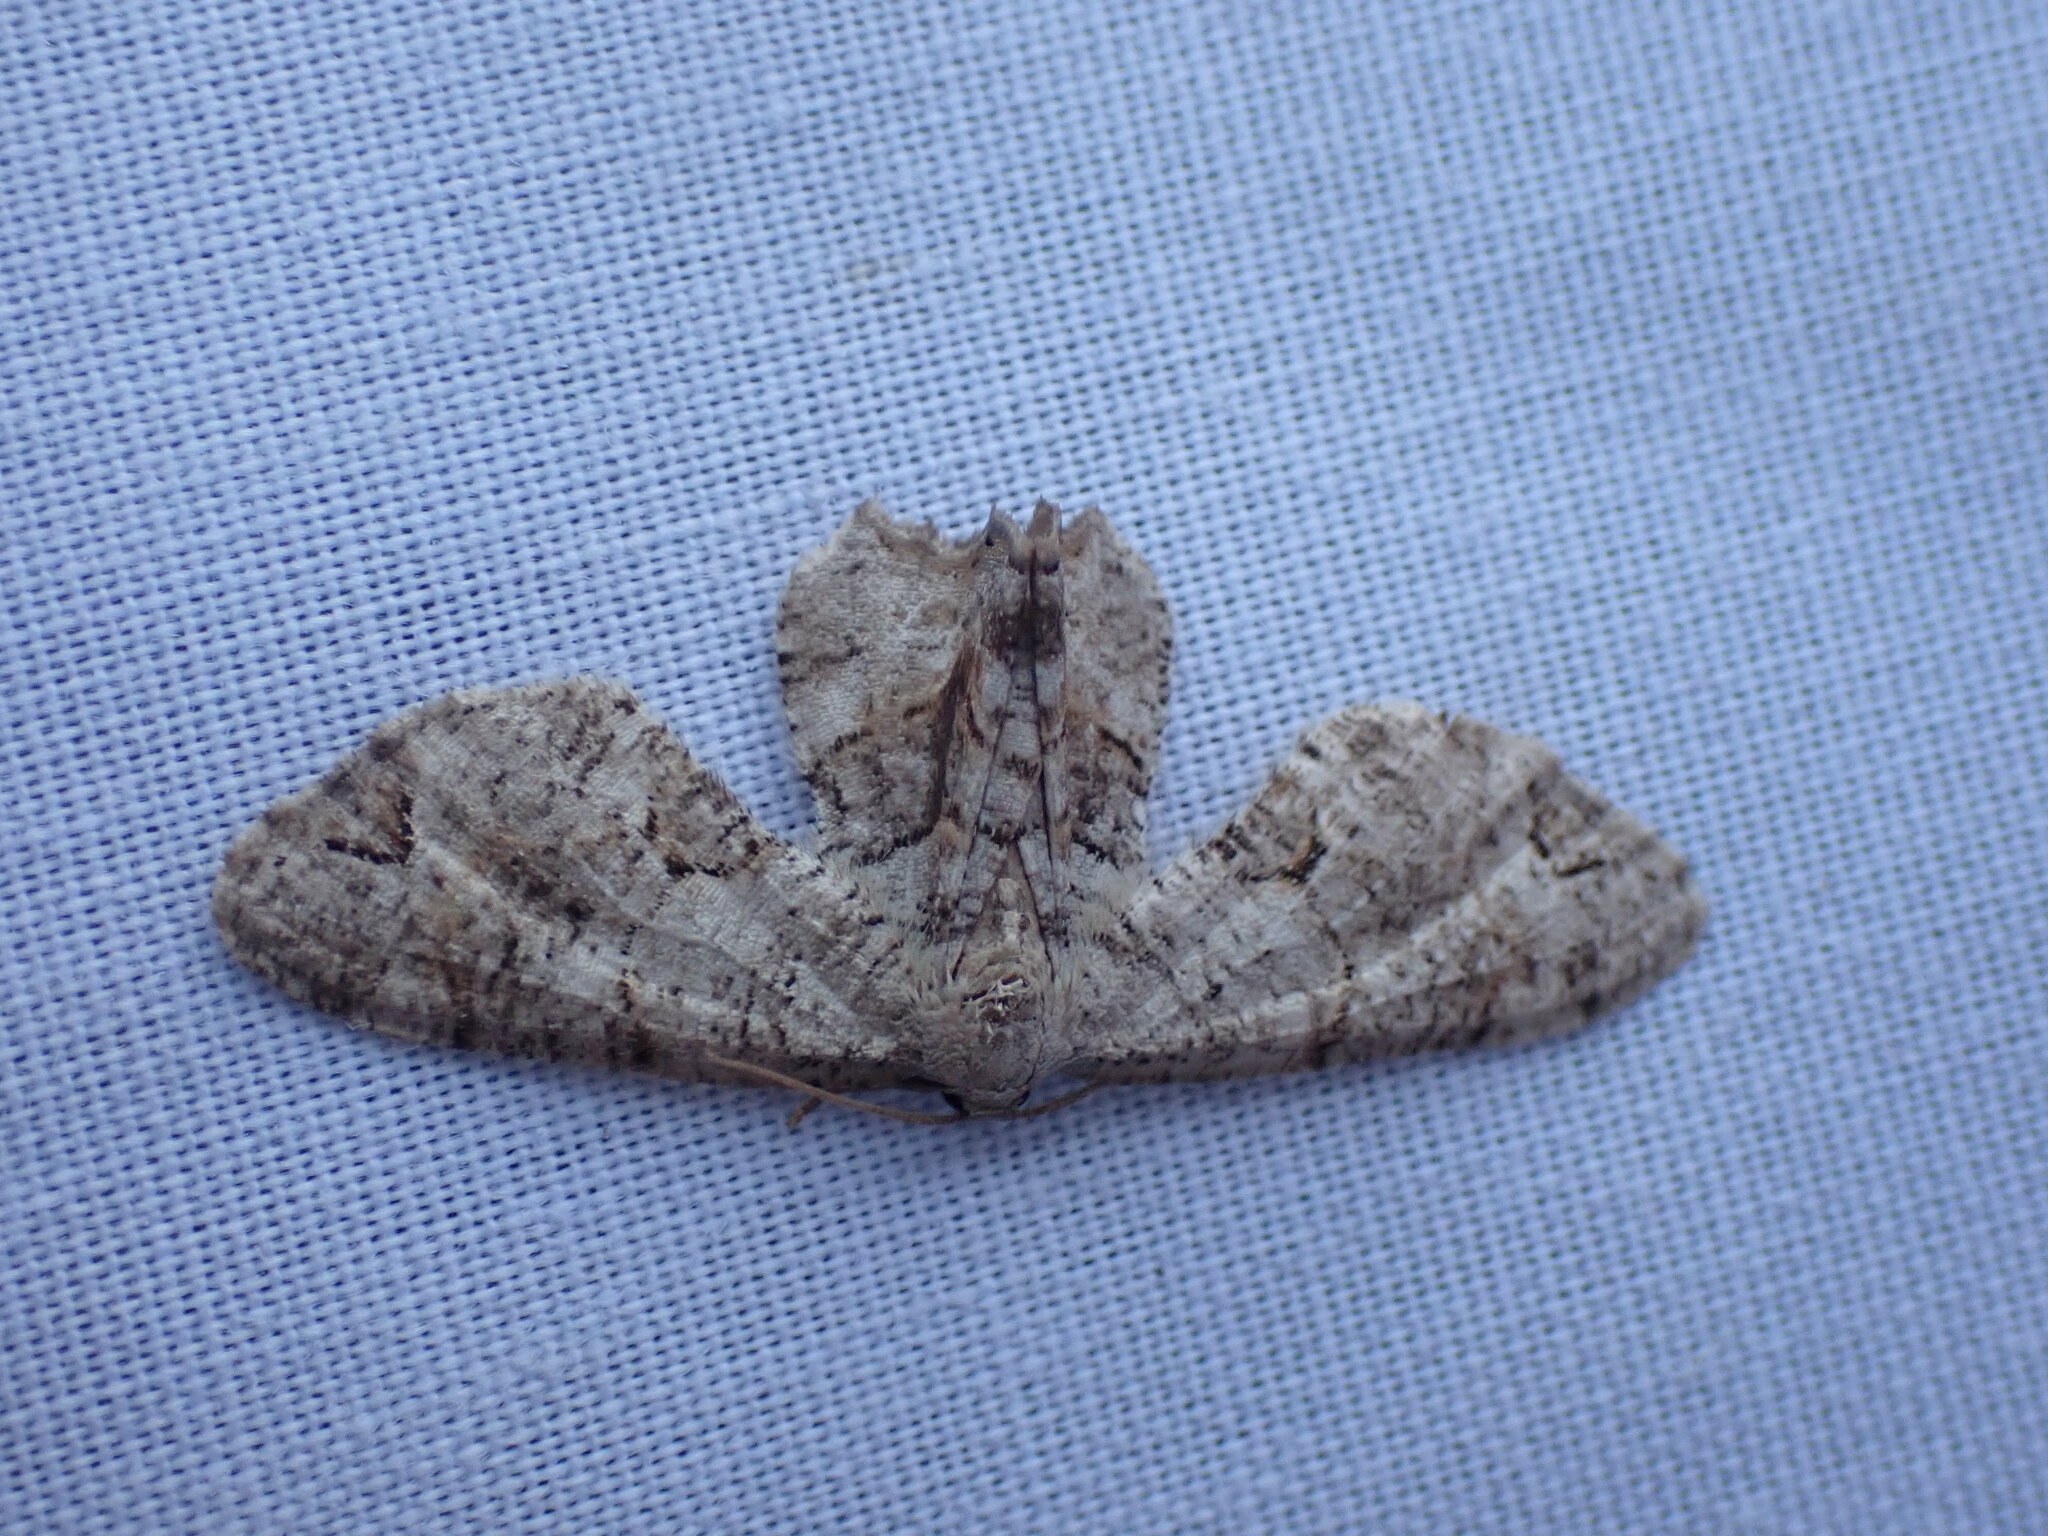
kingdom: Animalia
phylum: Arthropoda
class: Insecta
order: Lepidoptera
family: Uraniidae
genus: Epiplema
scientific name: Epiplema Callizzia amorata
